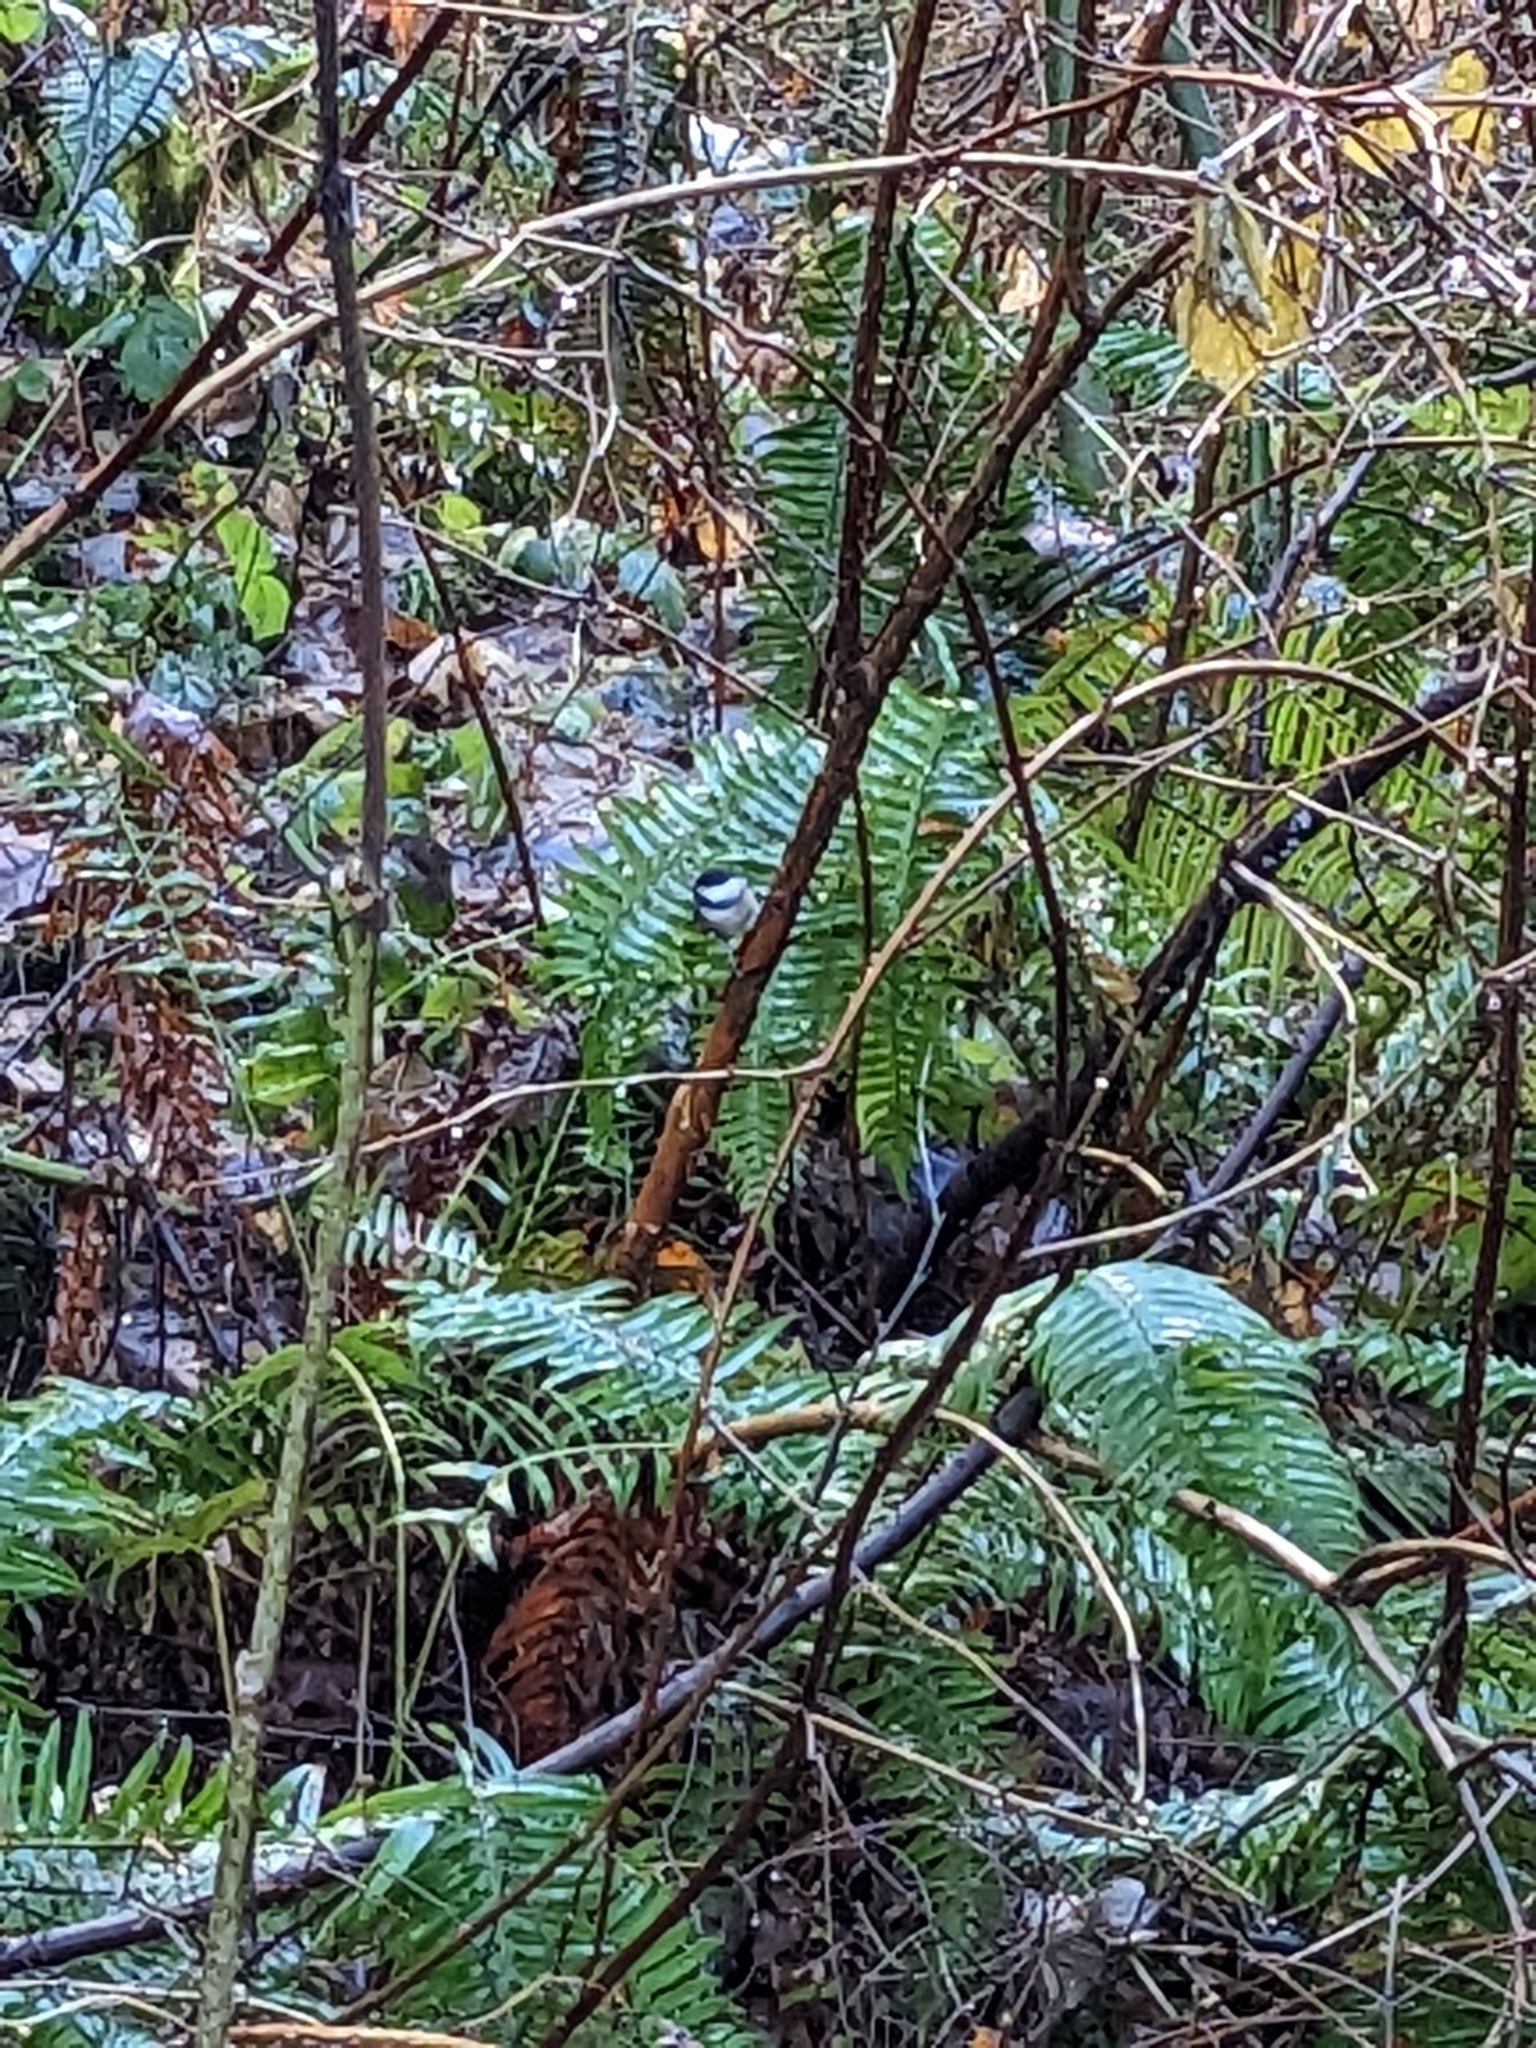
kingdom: Animalia
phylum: Chordata
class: Aves
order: Passeriformes
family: Paridae
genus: Poecile
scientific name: Poecile atricapillus
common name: Black-capped chickadee
